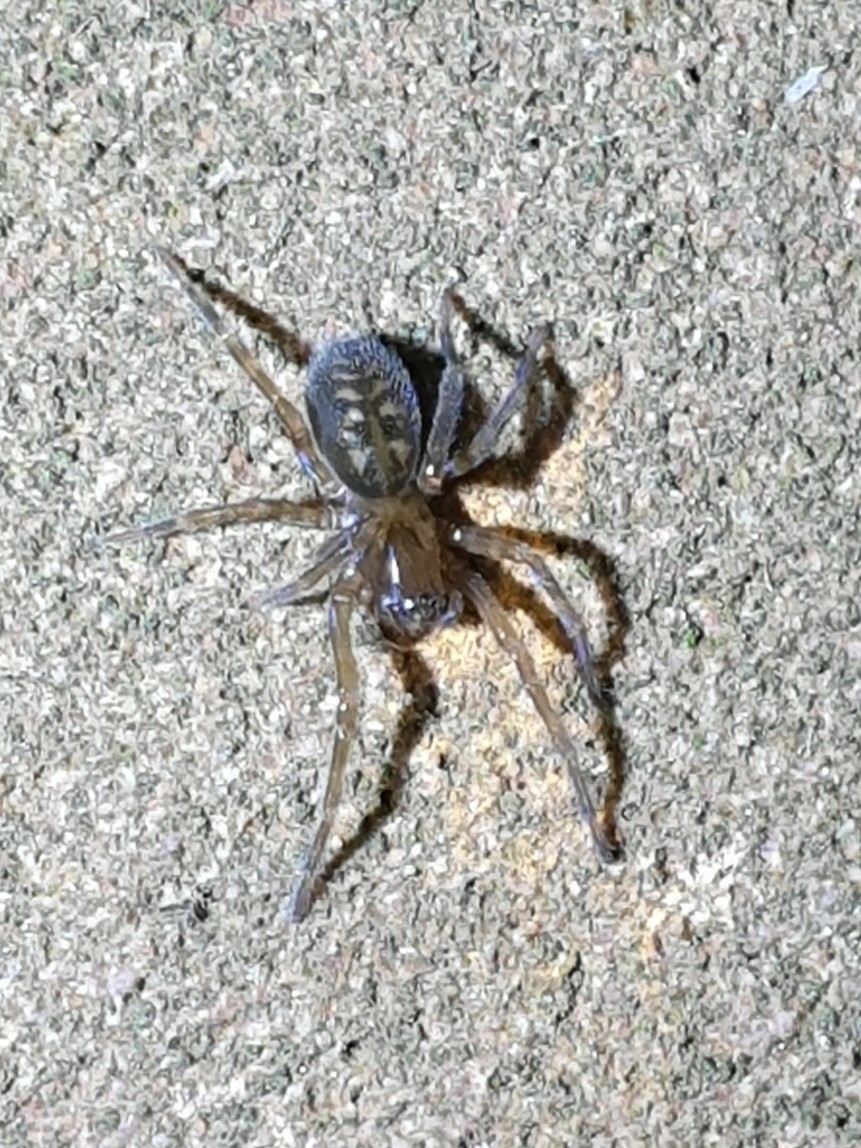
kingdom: Animalia
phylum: Arthropoda
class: Arachnida
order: Araneae
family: Amaurobiidae
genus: Amaurobius
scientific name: Amaurobius ferox
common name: Black laceweaver
